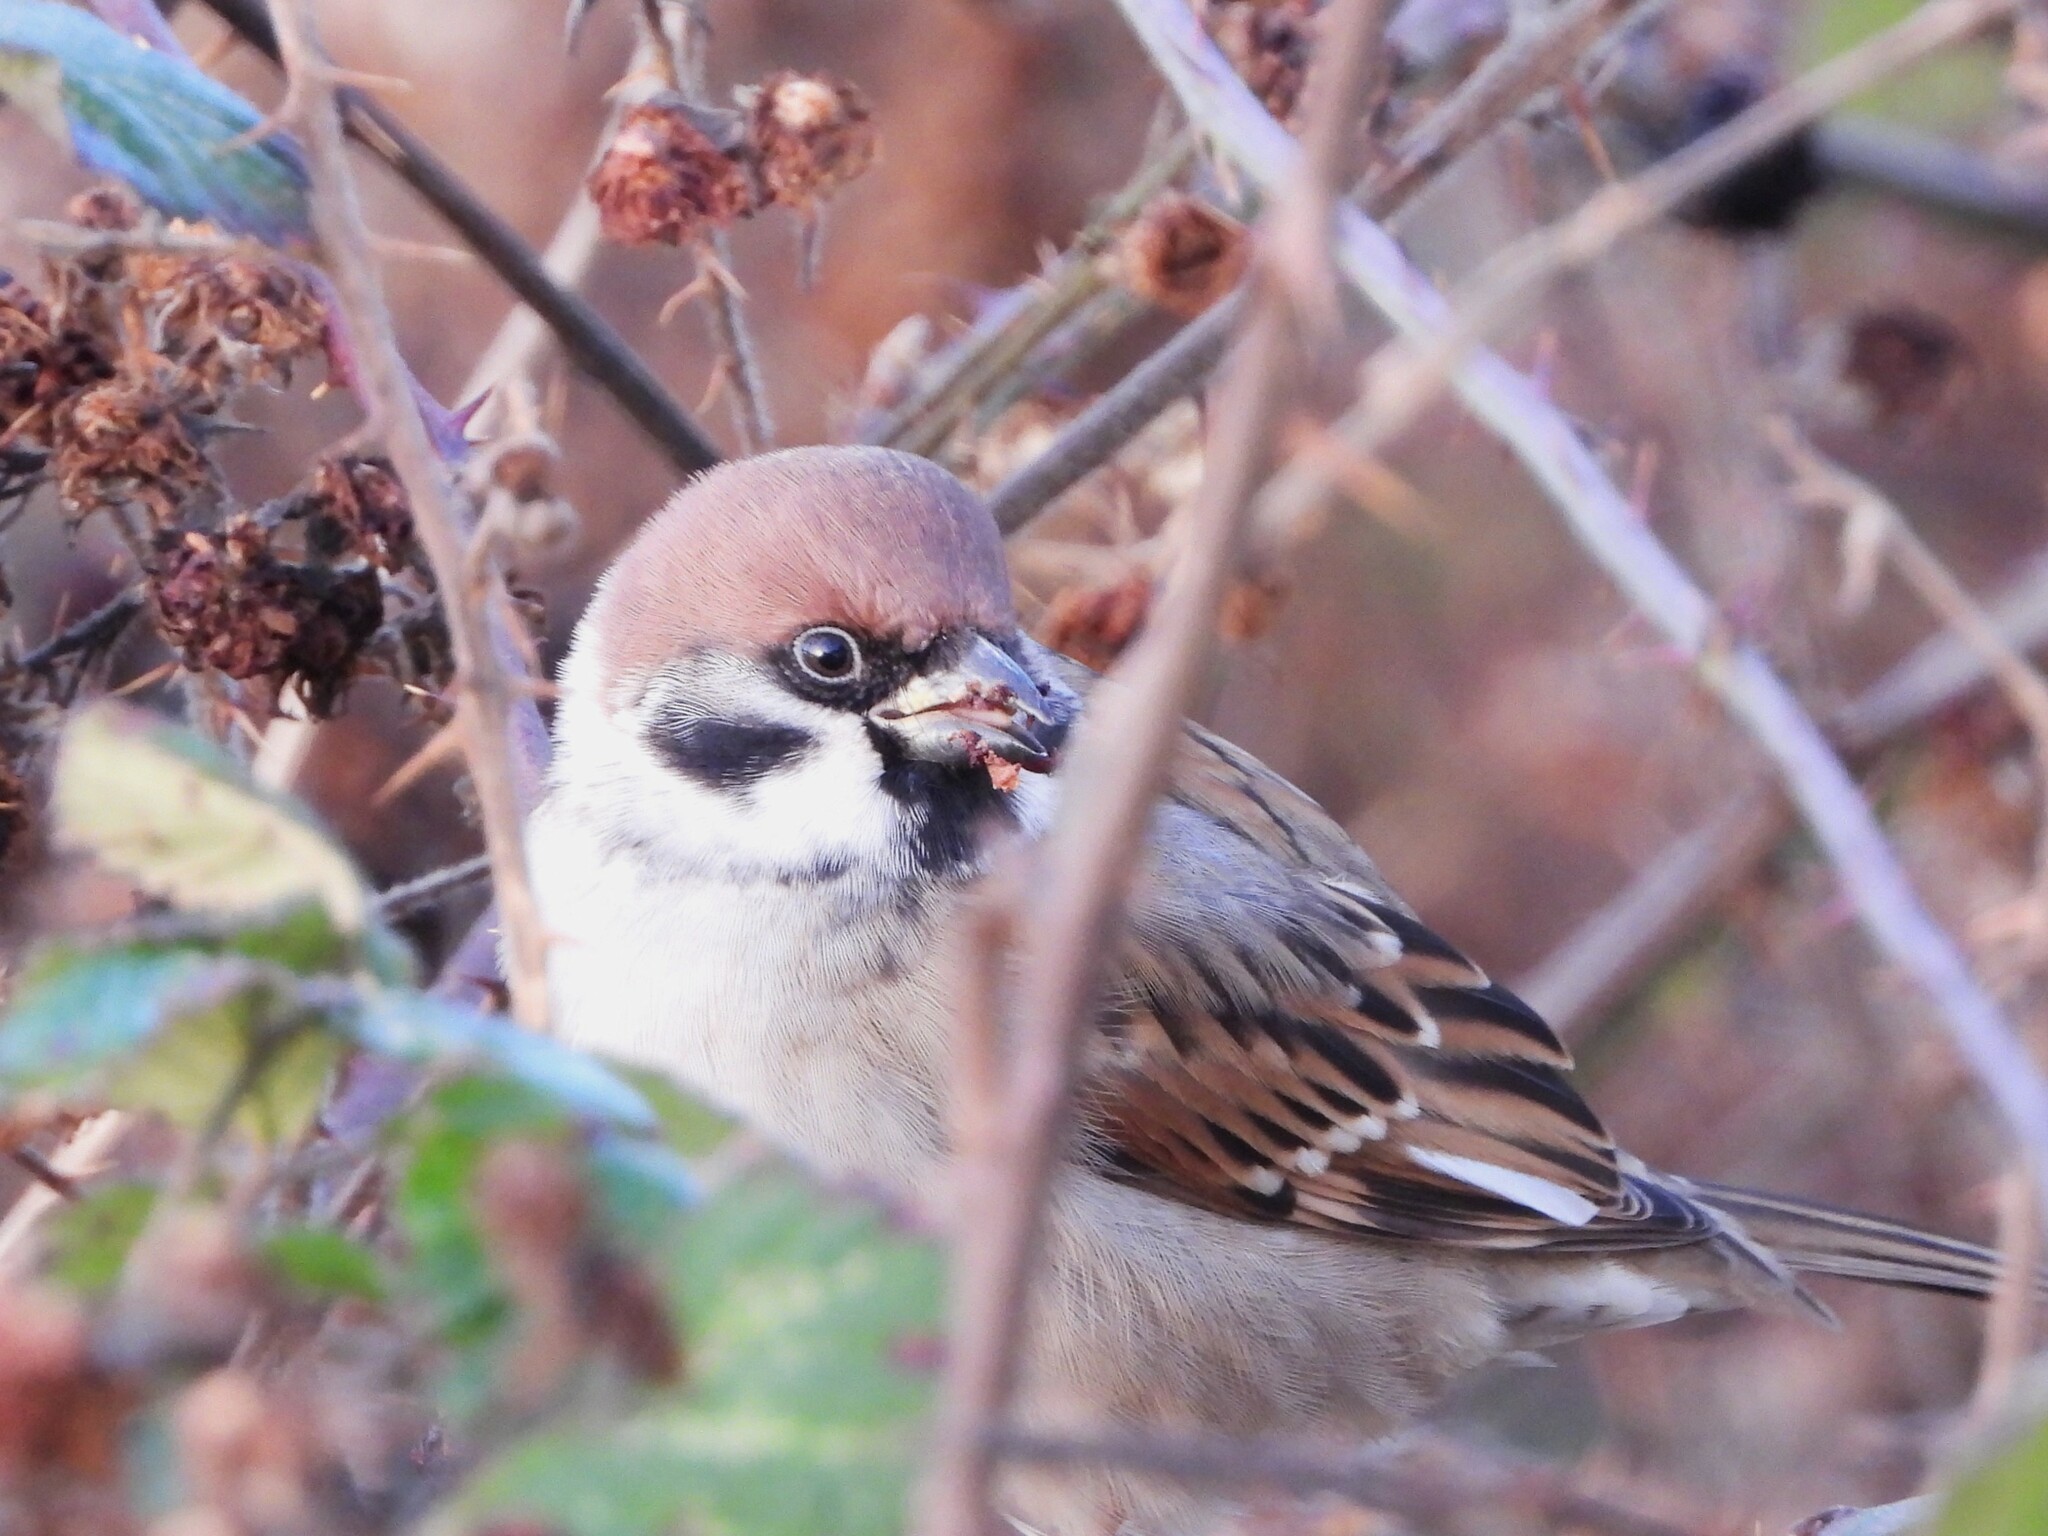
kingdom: Animalia
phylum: Chordata
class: Aves
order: Passeriformes
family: Passeridae
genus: Passer
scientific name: Passer montanus
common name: Eurasian tree sparrow
